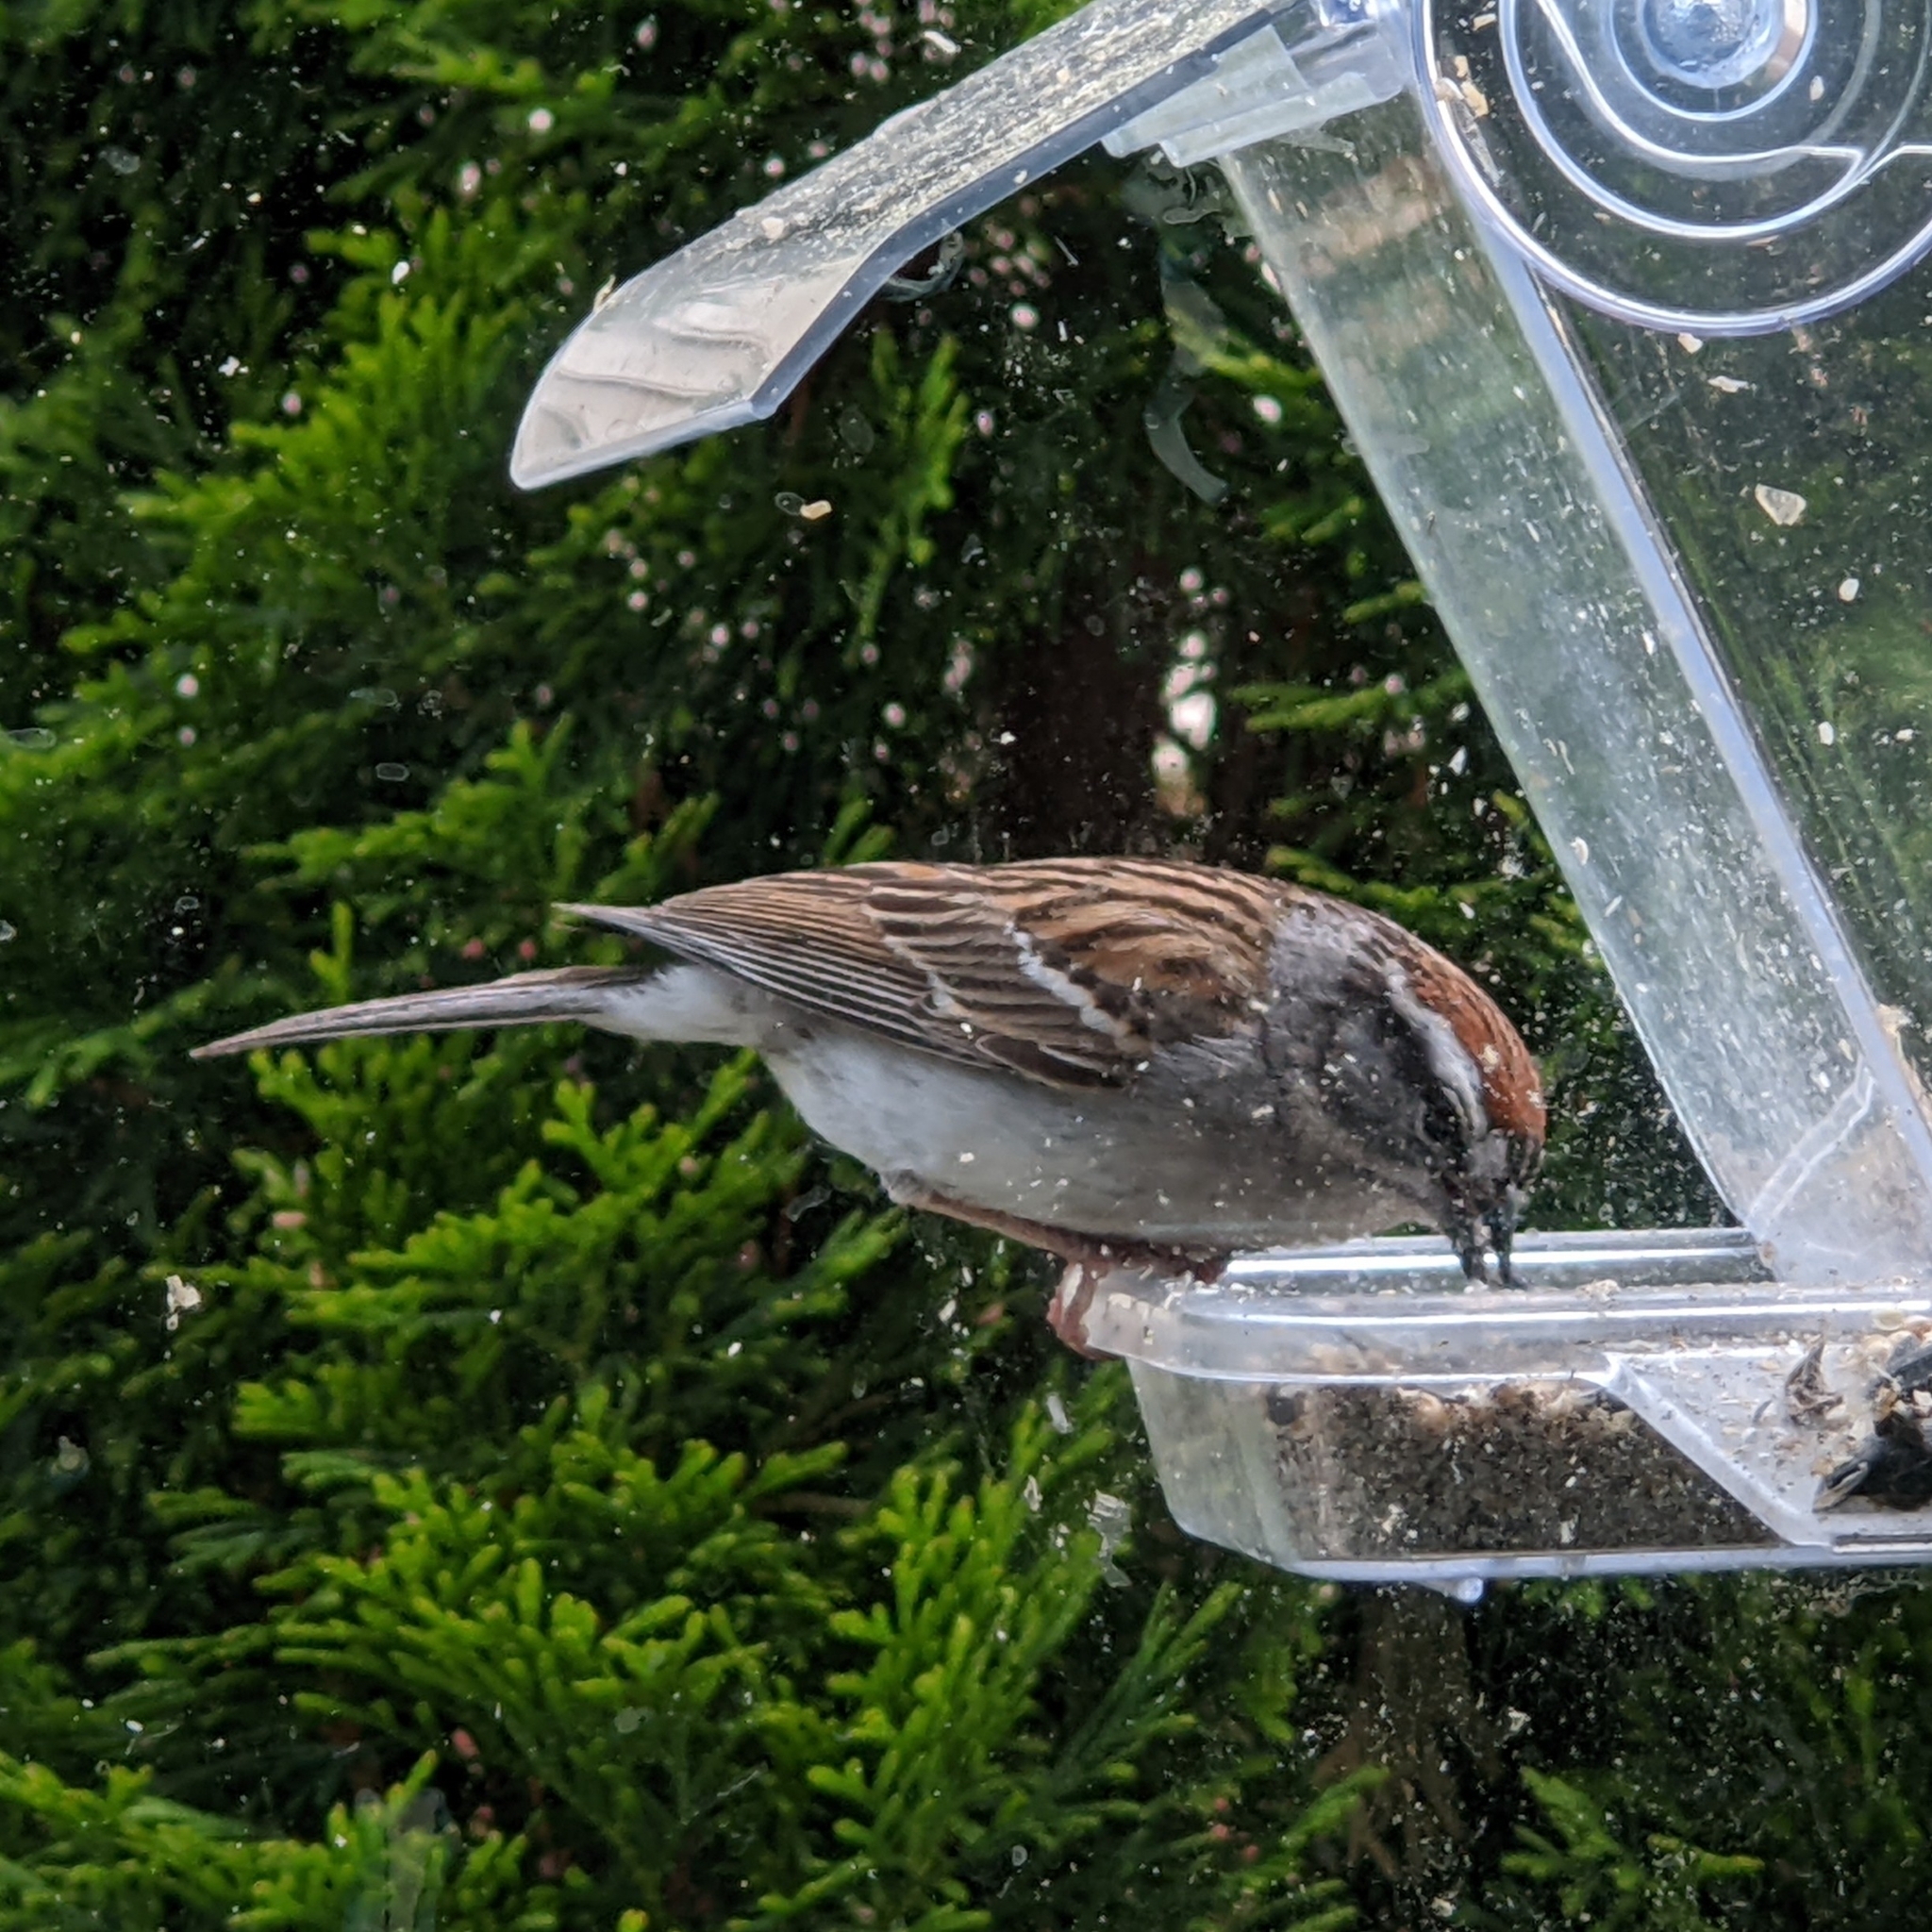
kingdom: Animalia
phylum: Chordata
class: Aves
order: Passeriformes
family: Passerellidae
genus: Spizella
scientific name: Spizella passerina
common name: Chipping sparrow
